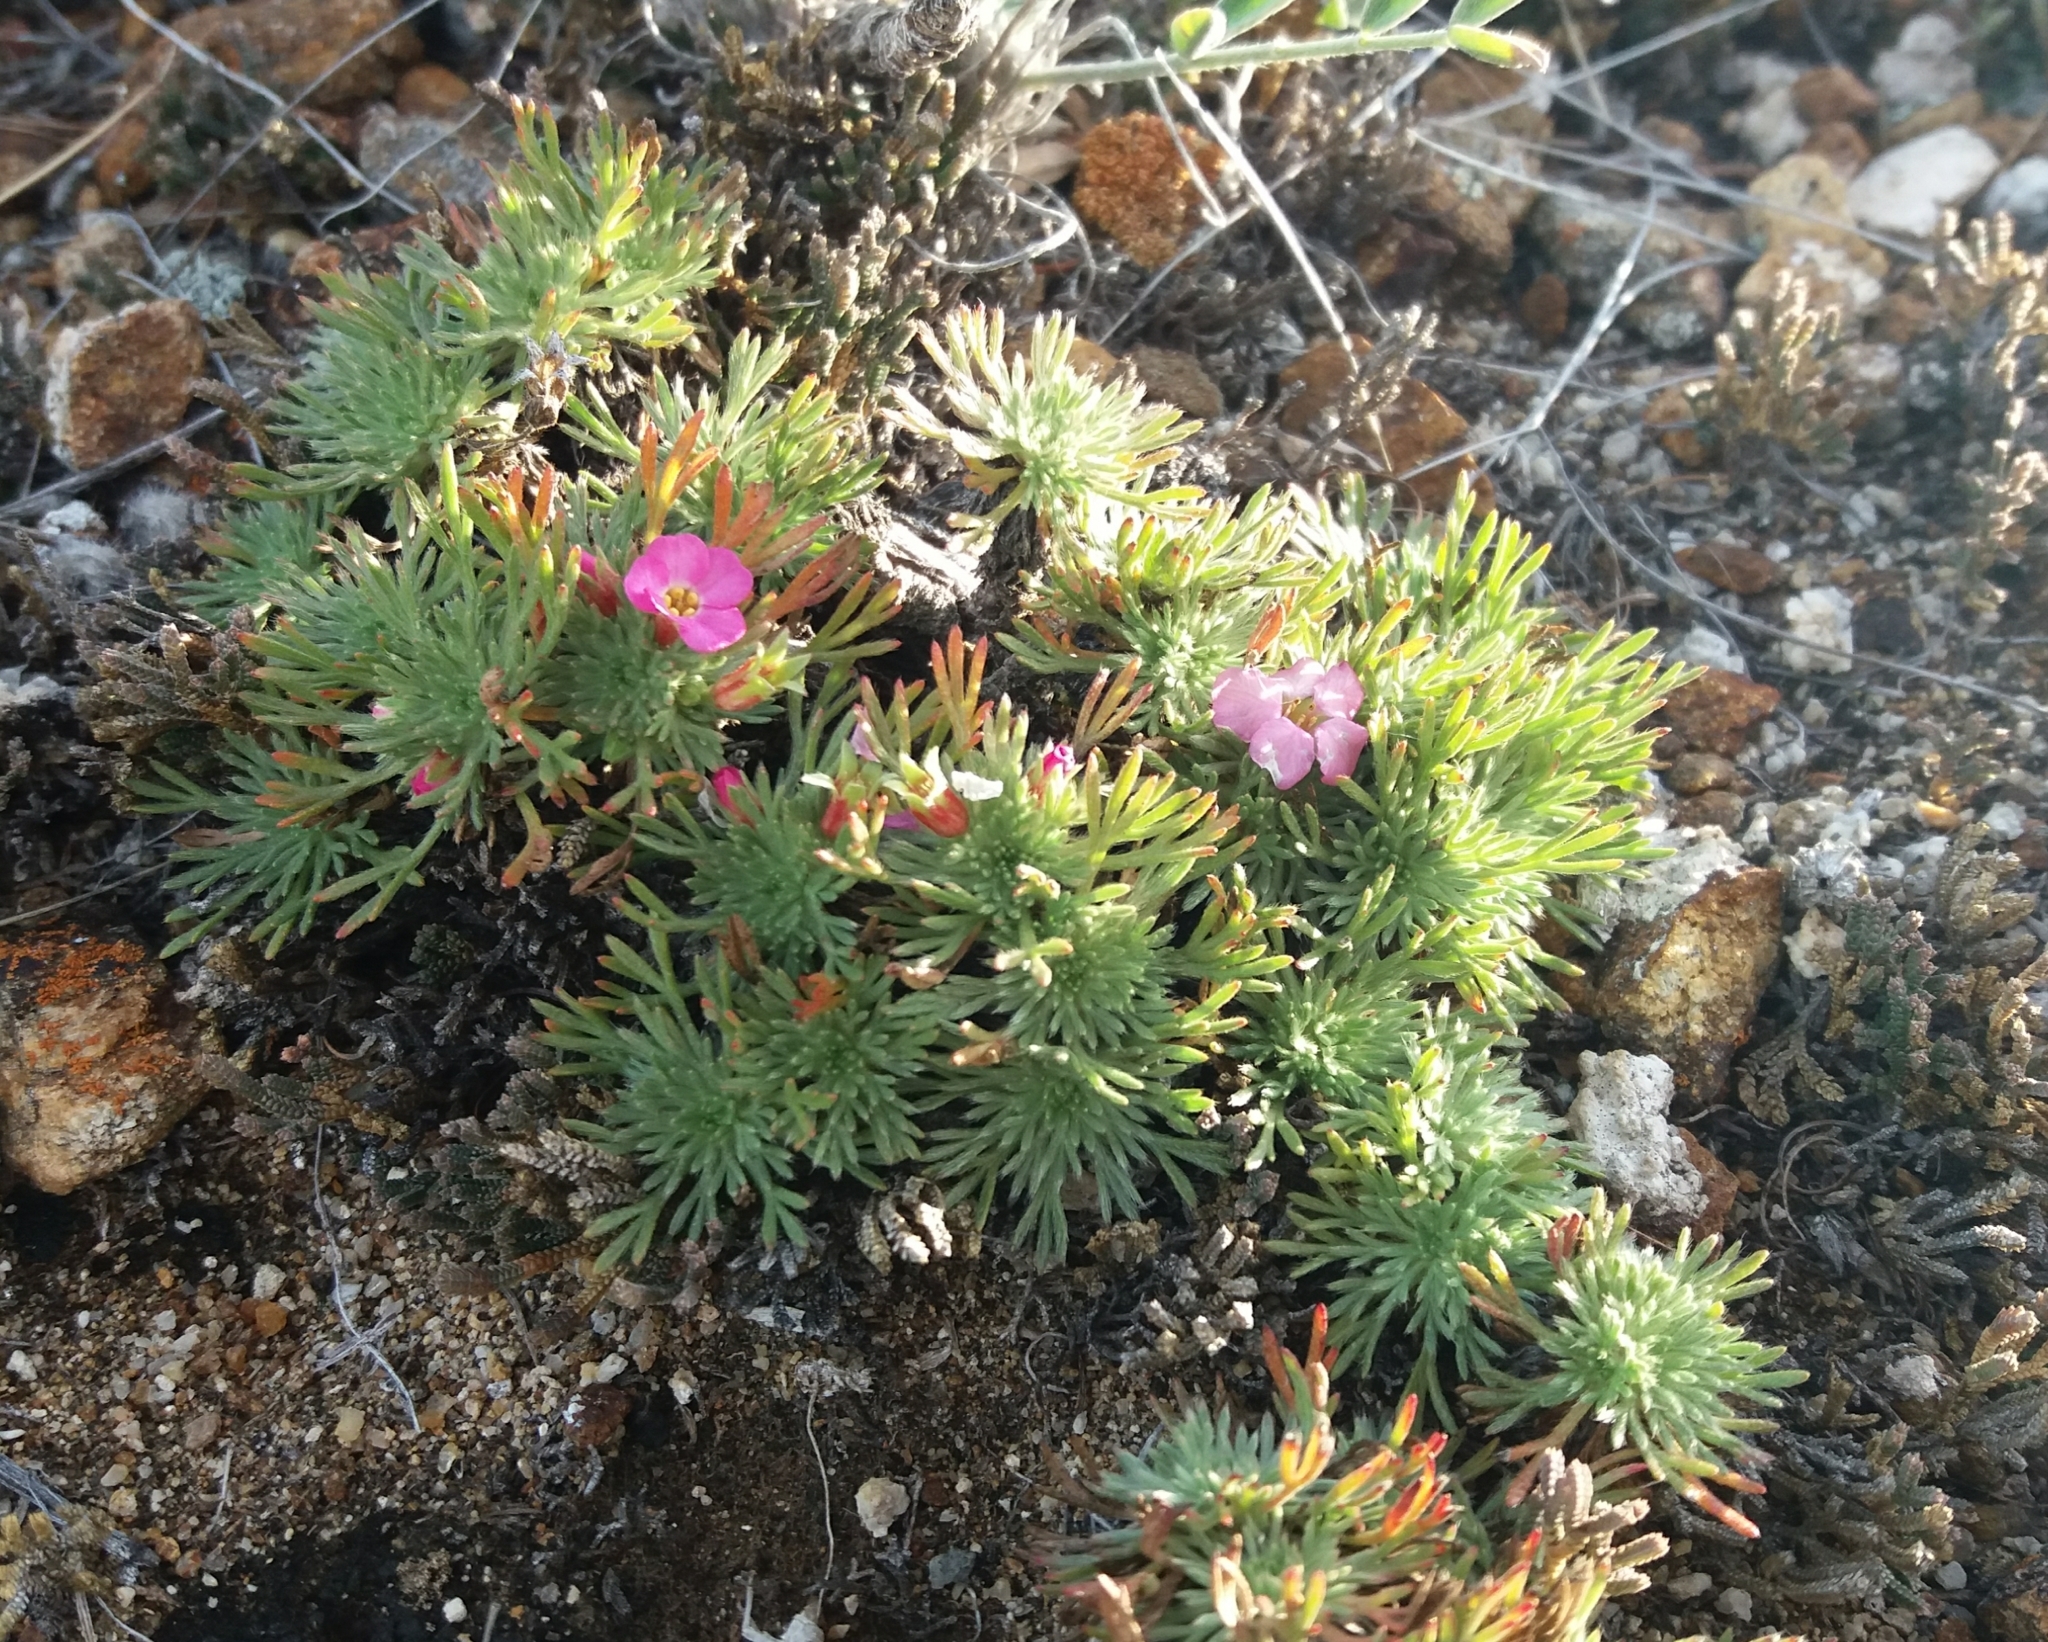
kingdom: Plantae
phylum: Tracheophyta
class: Magnoliopsida
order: Rosales
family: Rosaceae
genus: Chamaerhodos
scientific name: Chamaerhodos altaica
